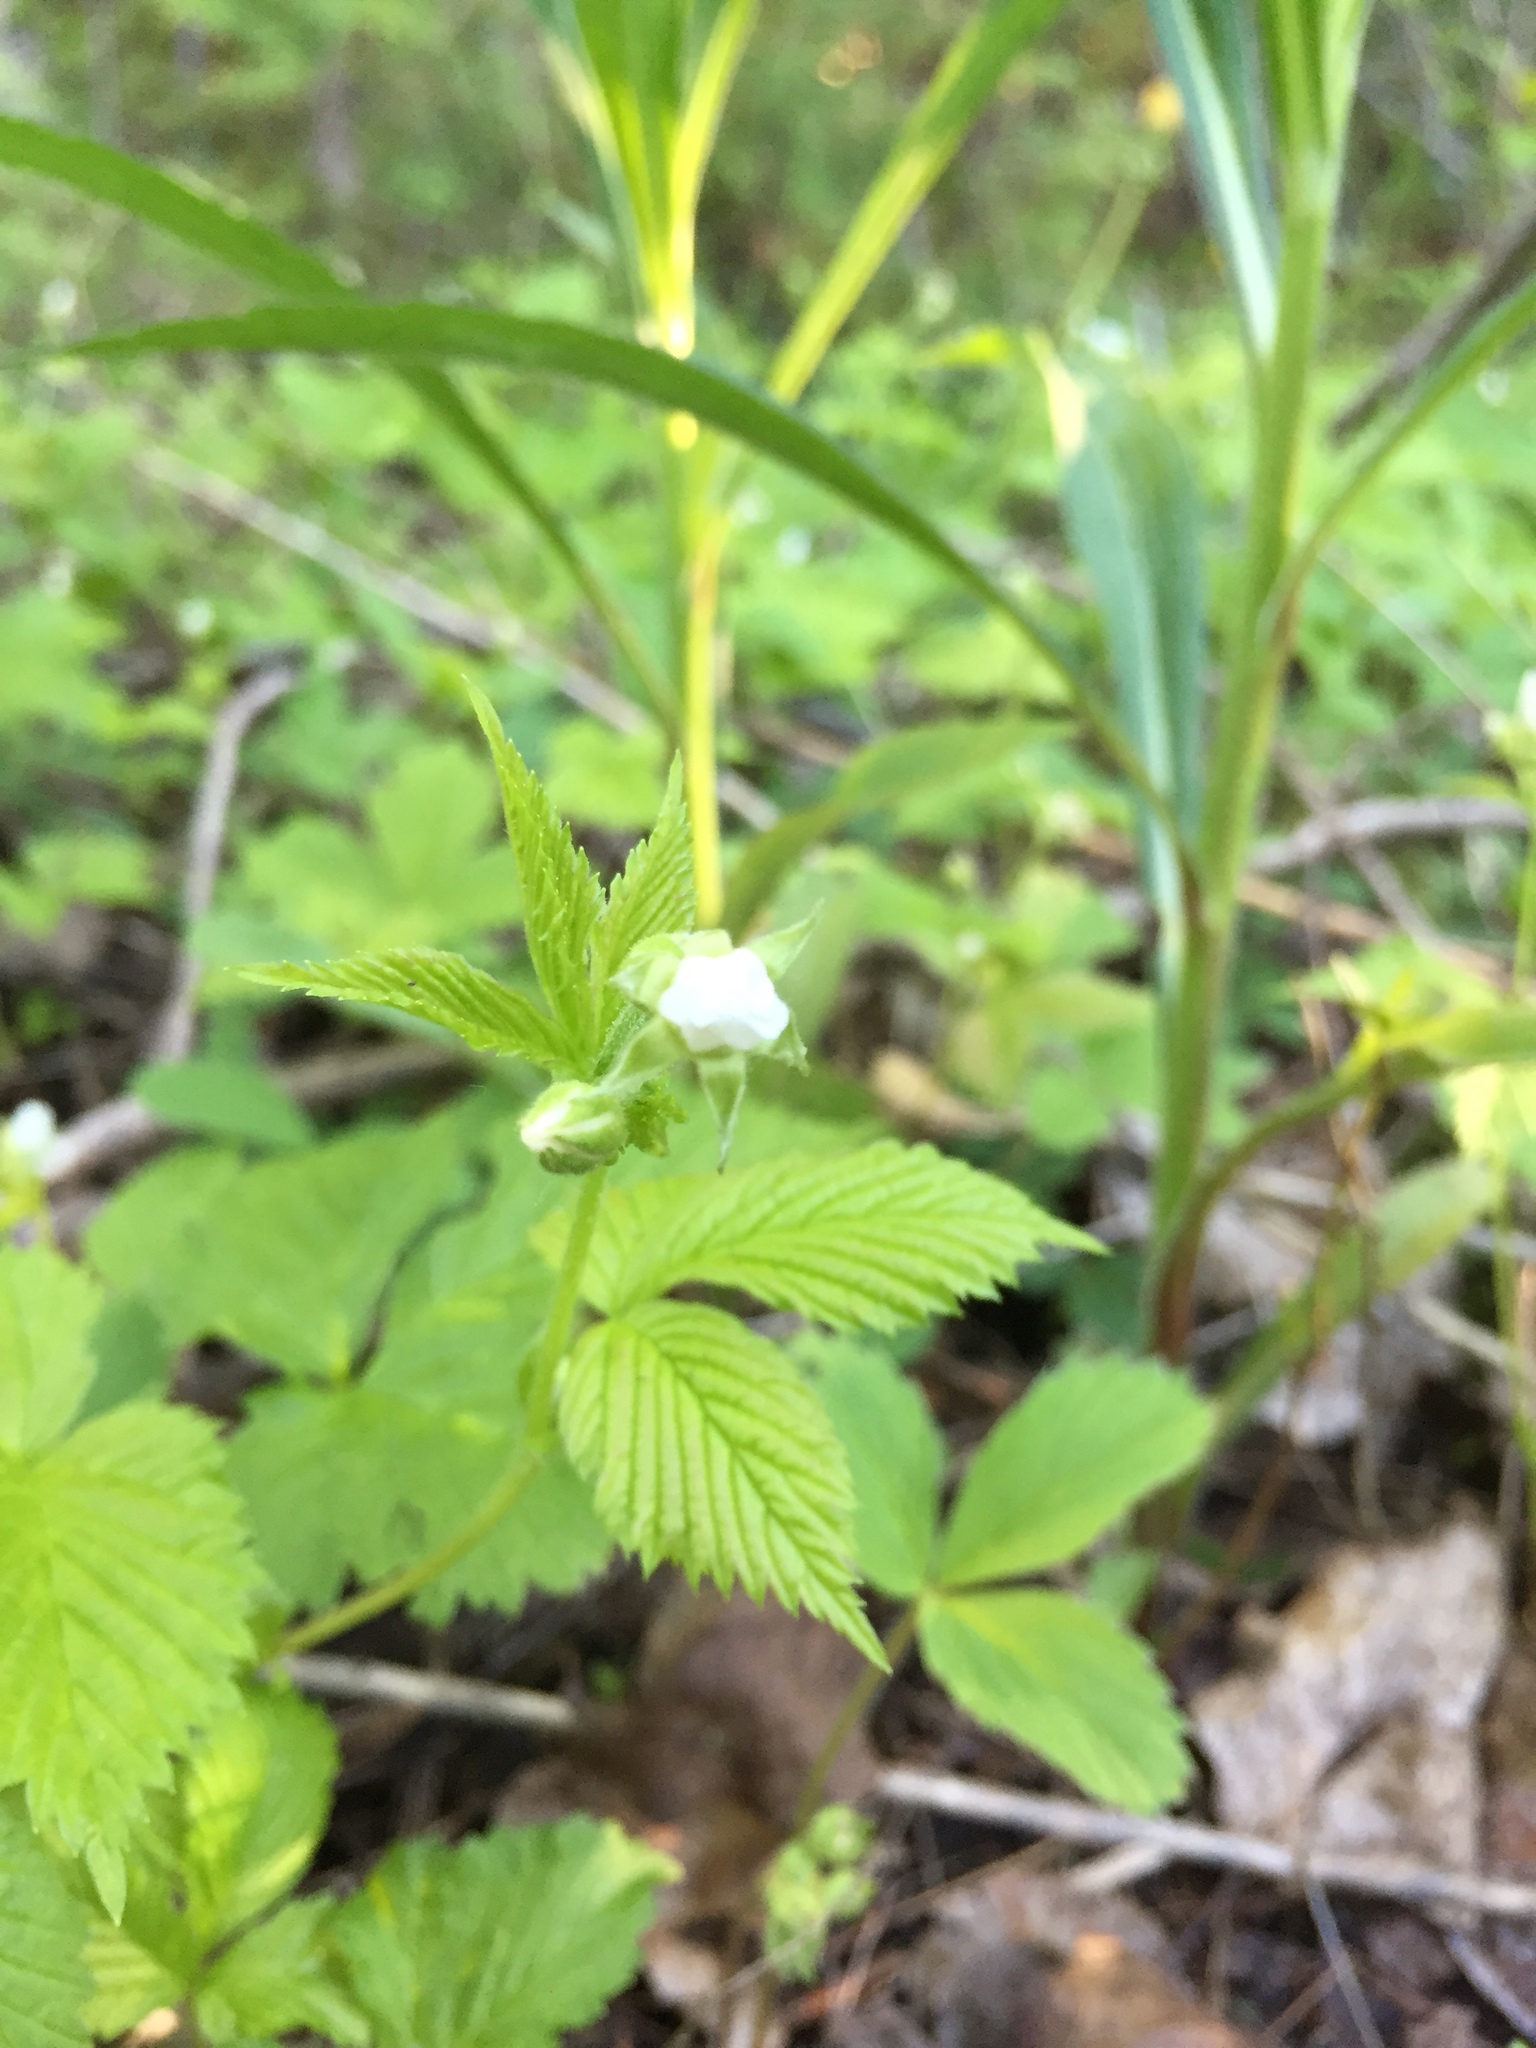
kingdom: Plantae
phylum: Tracheophyta
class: Magnoliopsida
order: Rosales
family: Rosaceae
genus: Rubus
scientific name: Rubus pubescens
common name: Dwarf raspberry
